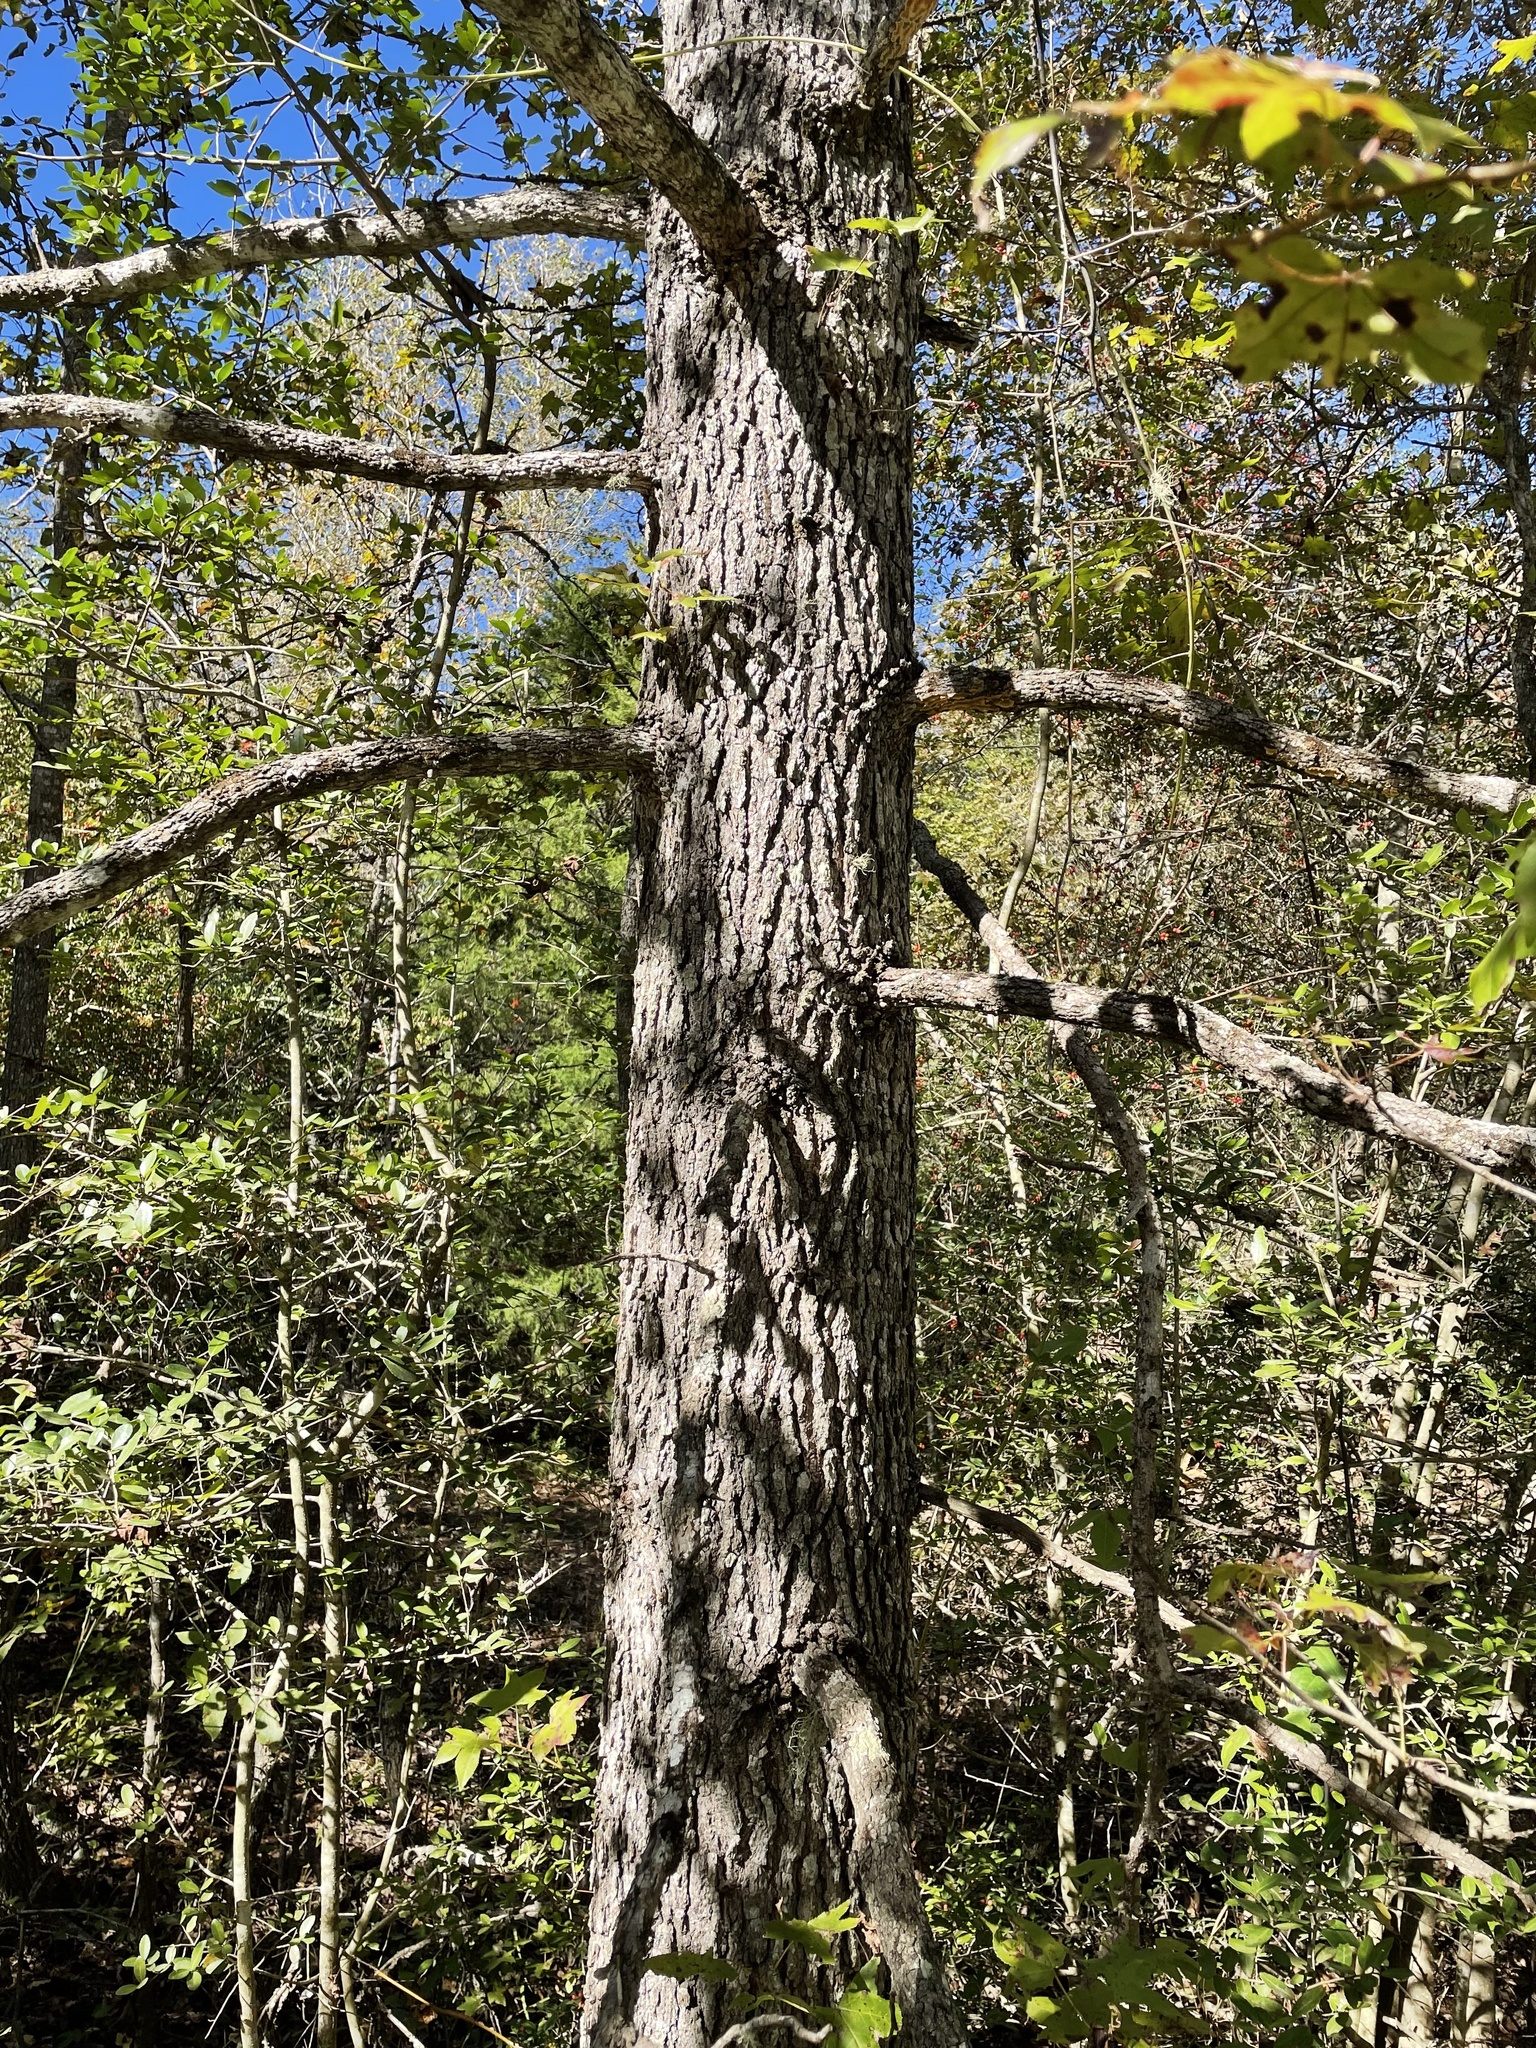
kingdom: Plantae
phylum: Tracheophyta
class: Magnoliopsida
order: Saxifragales
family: Altingiaceae
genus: Liquidambar
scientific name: Liquidambar styraciflua
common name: Sweet gum
